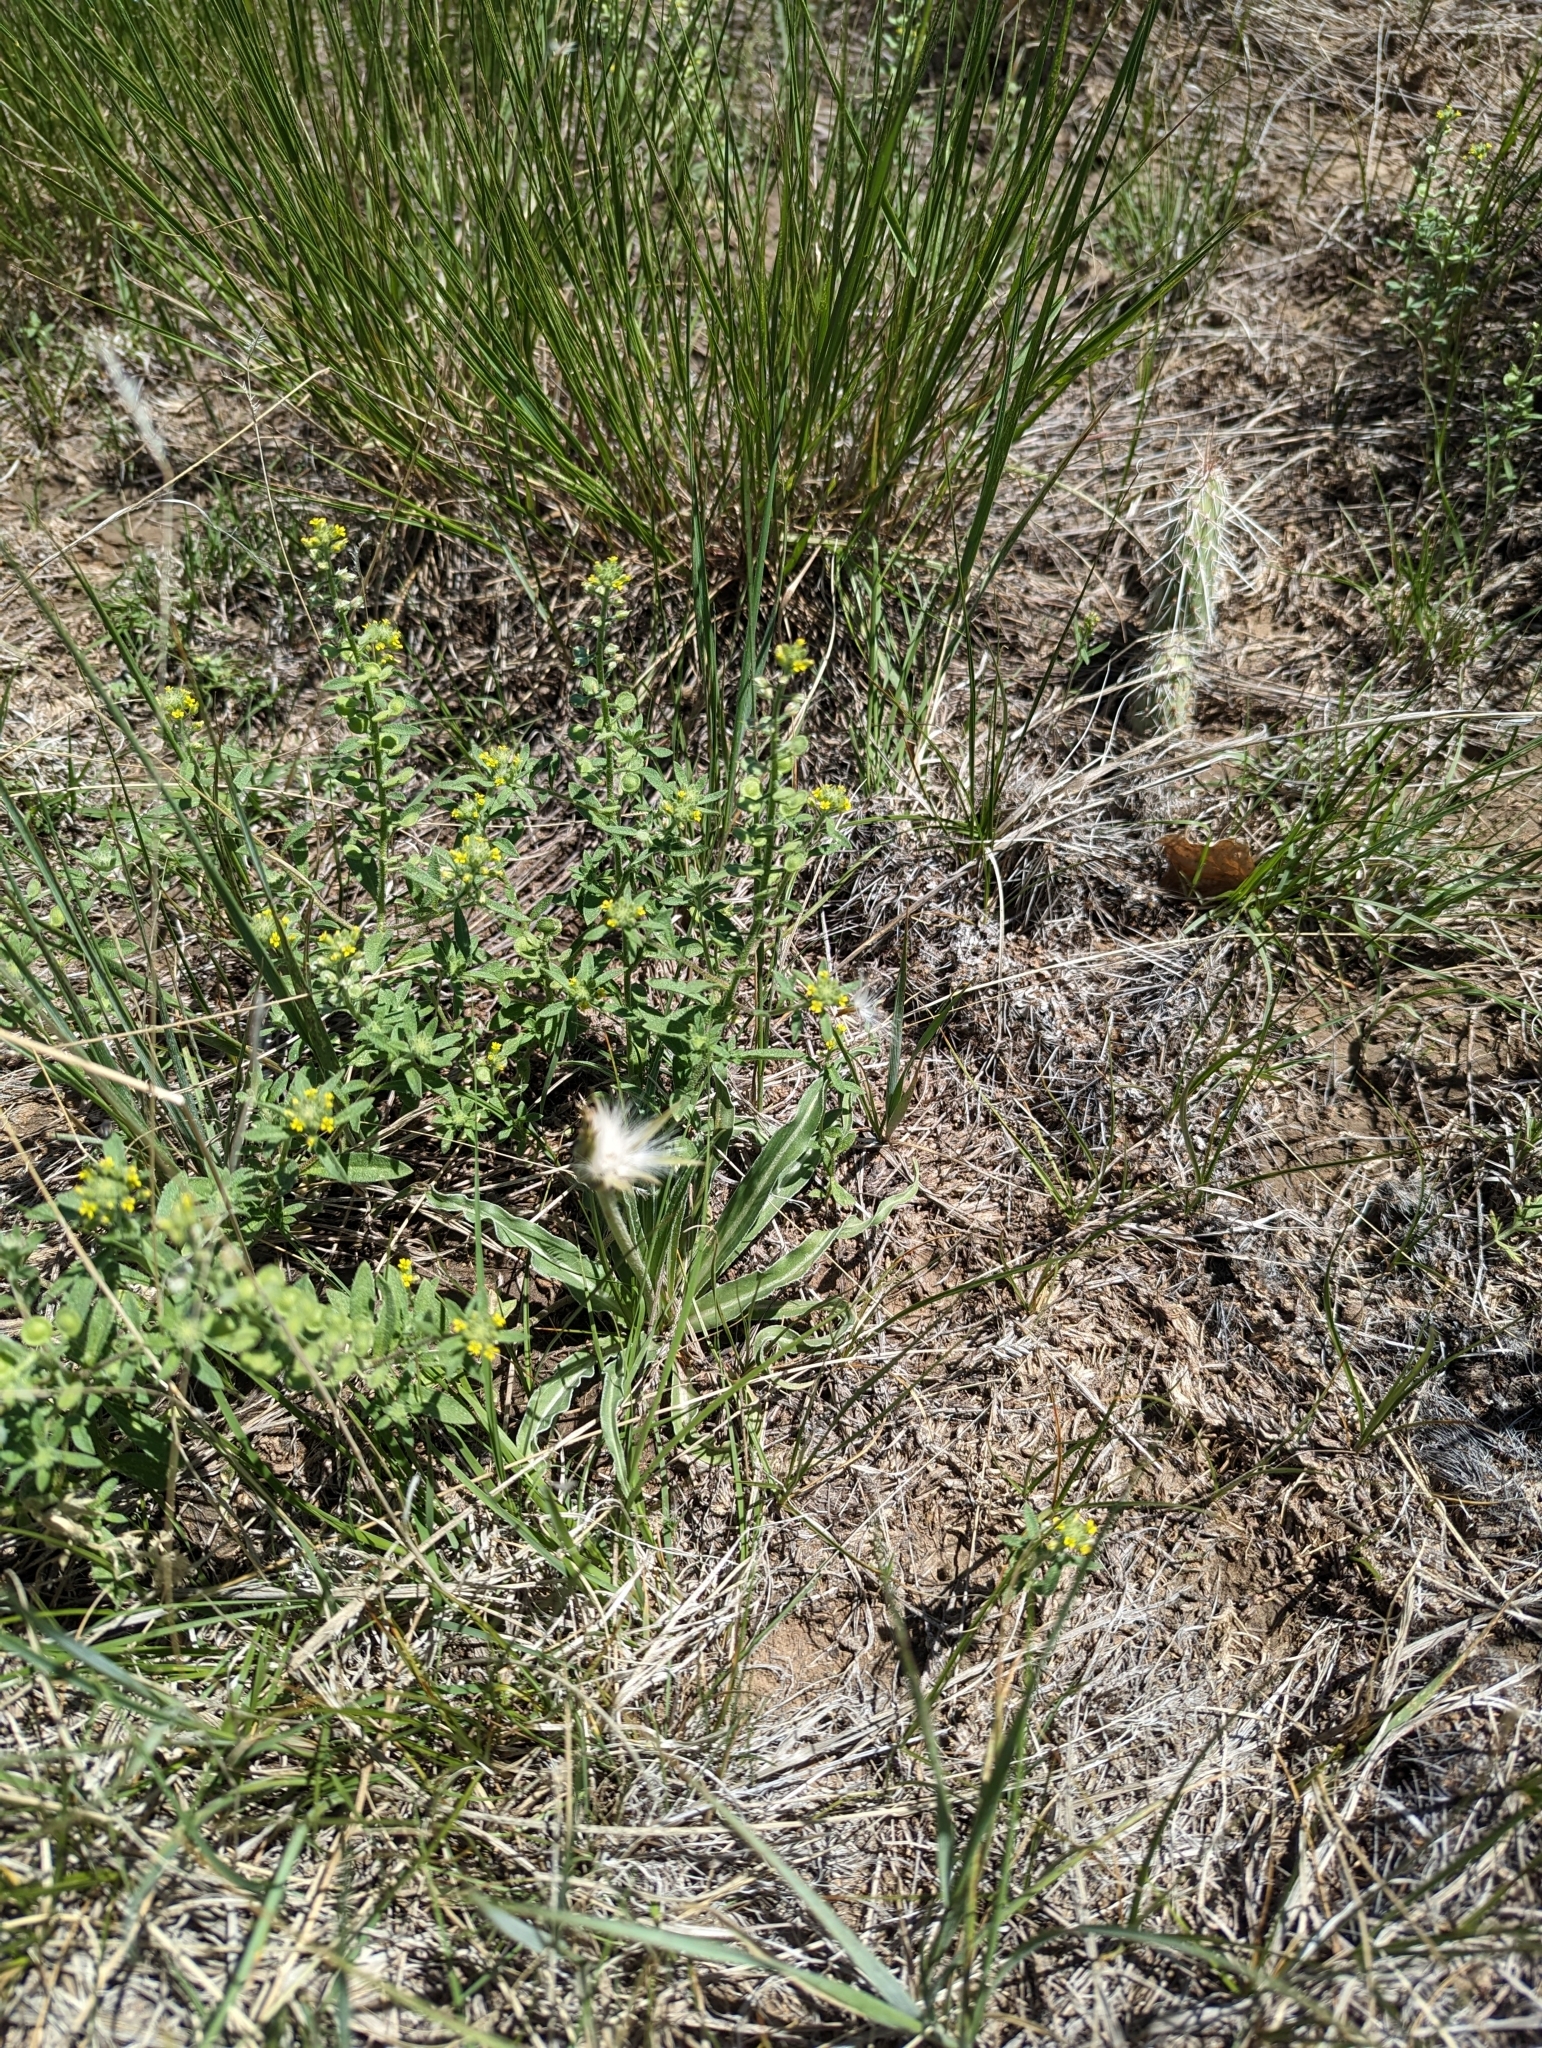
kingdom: Plantae
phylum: Tracheophyta
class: Magnoliopsida
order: Asterales
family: Asteraceae
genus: Microseris
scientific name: Microseris cuspidata
